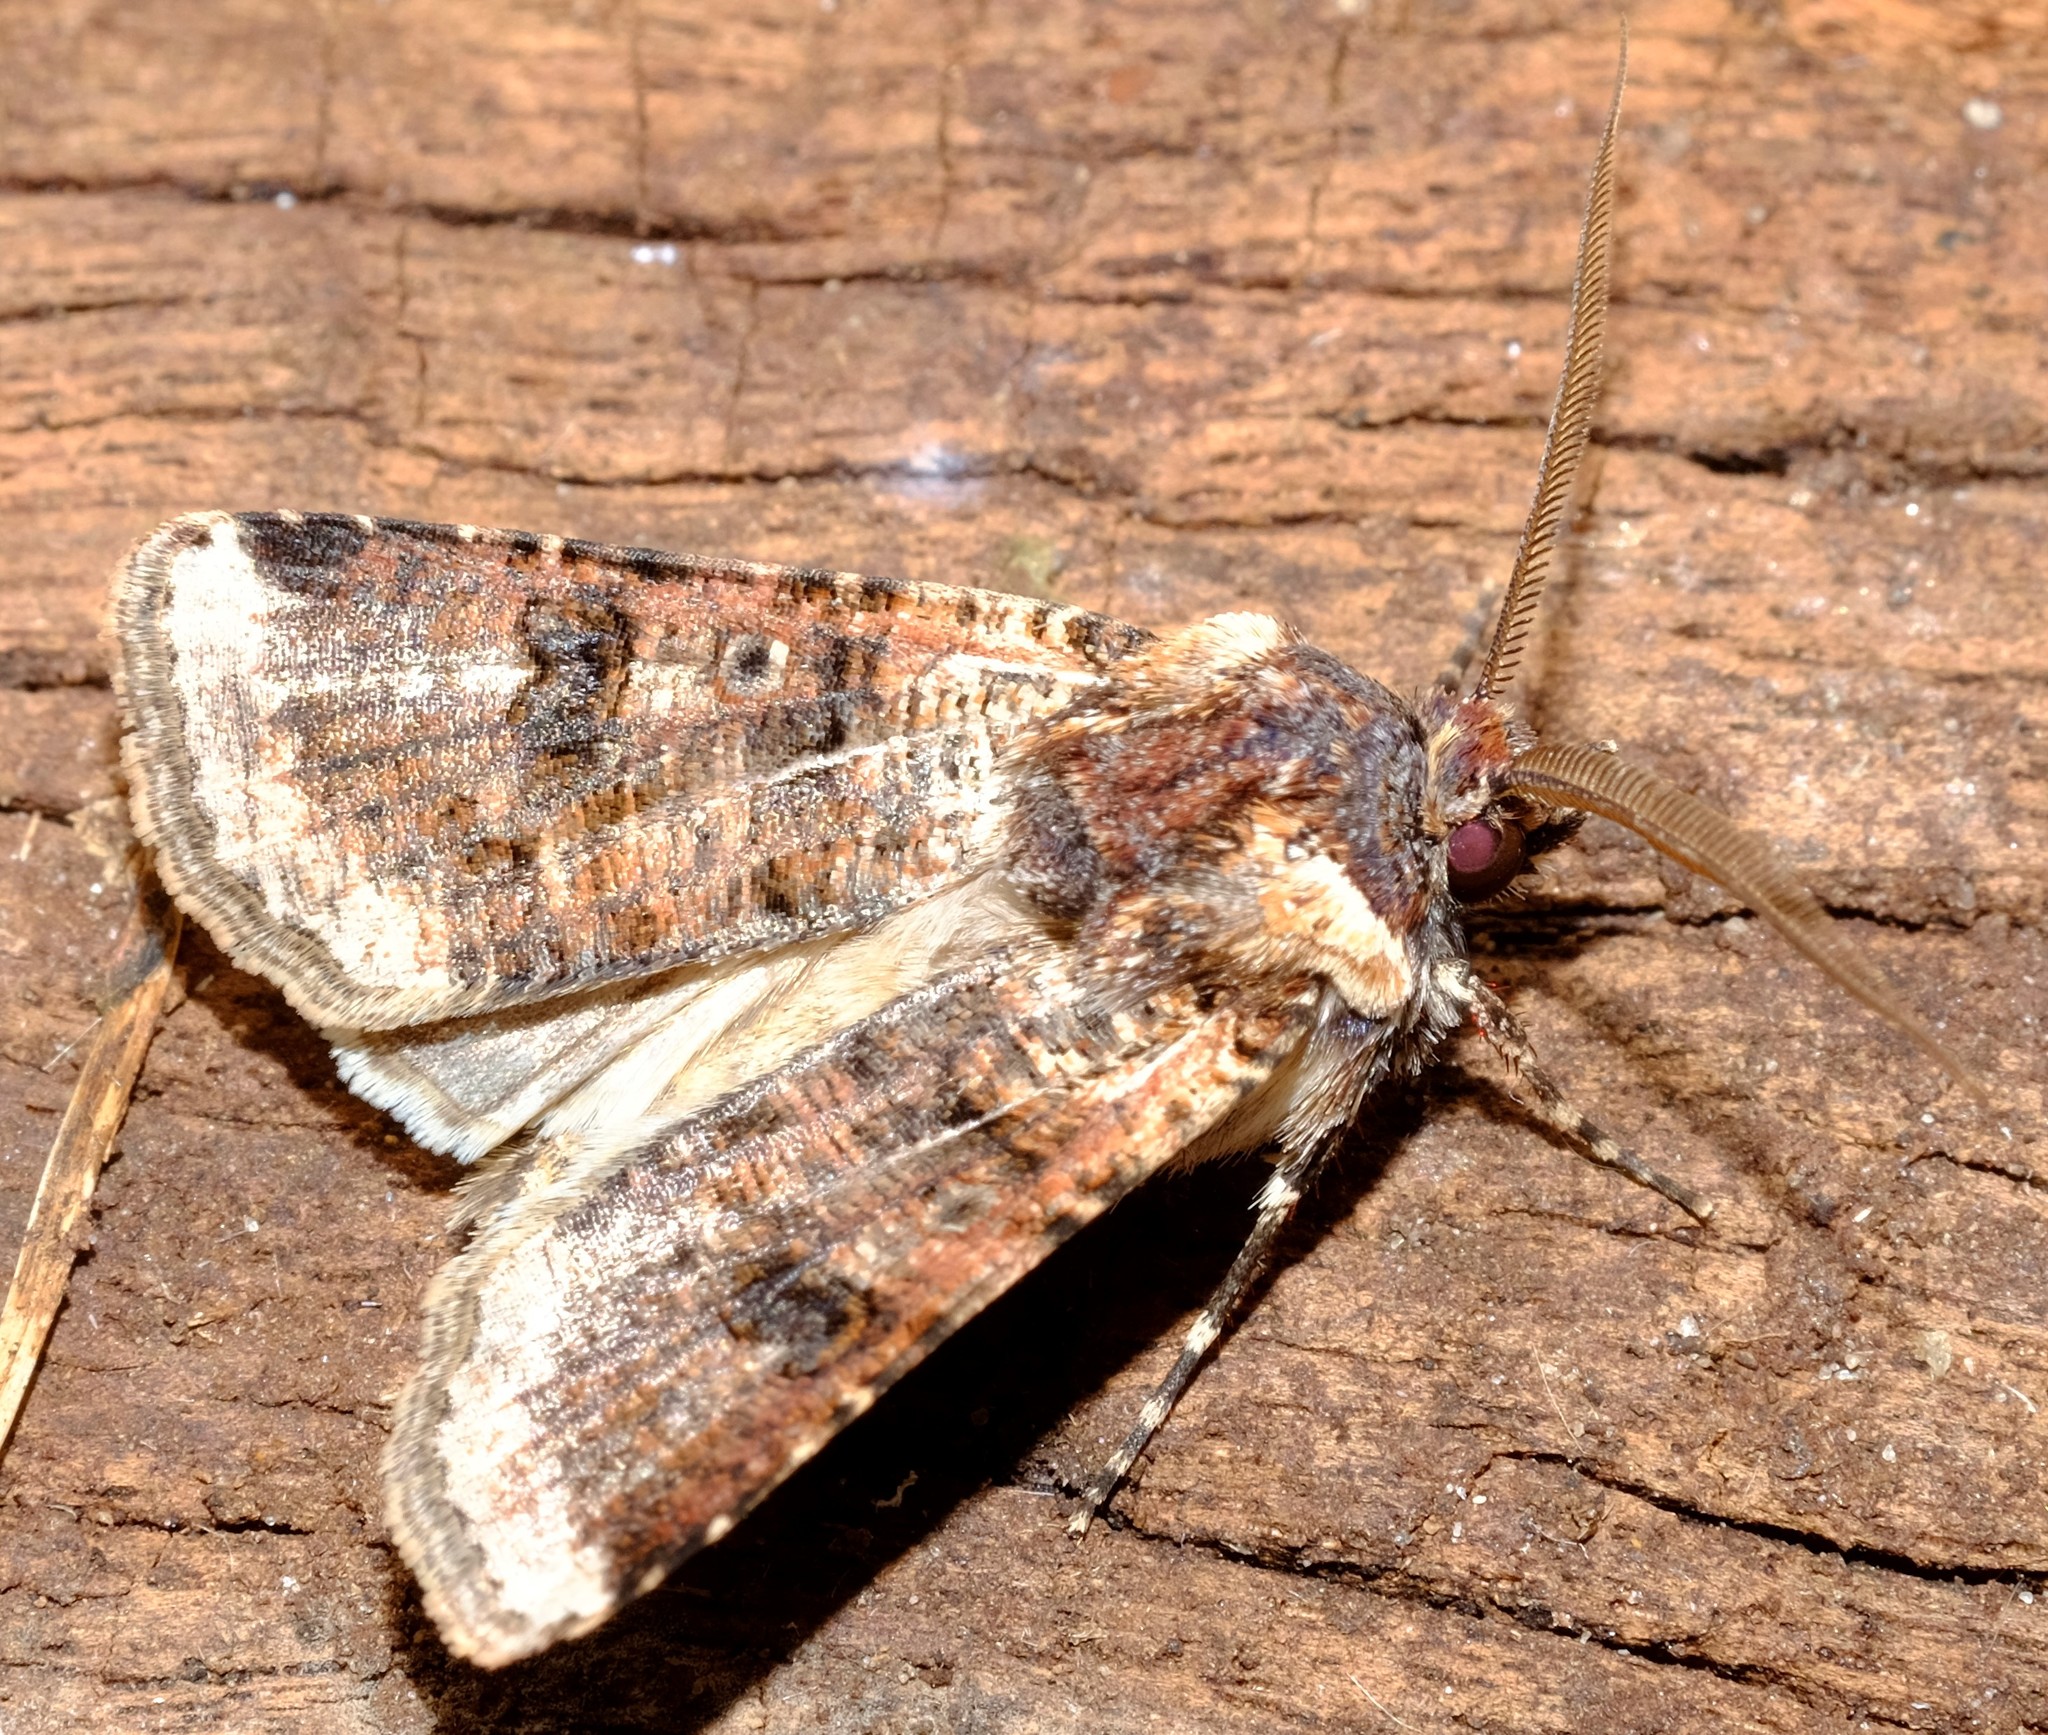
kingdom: Animalia
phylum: Arthropoda
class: Insecta
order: Lepidoptera
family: Noctuidae
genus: Agrotis
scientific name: Agrotis porphyricollis
